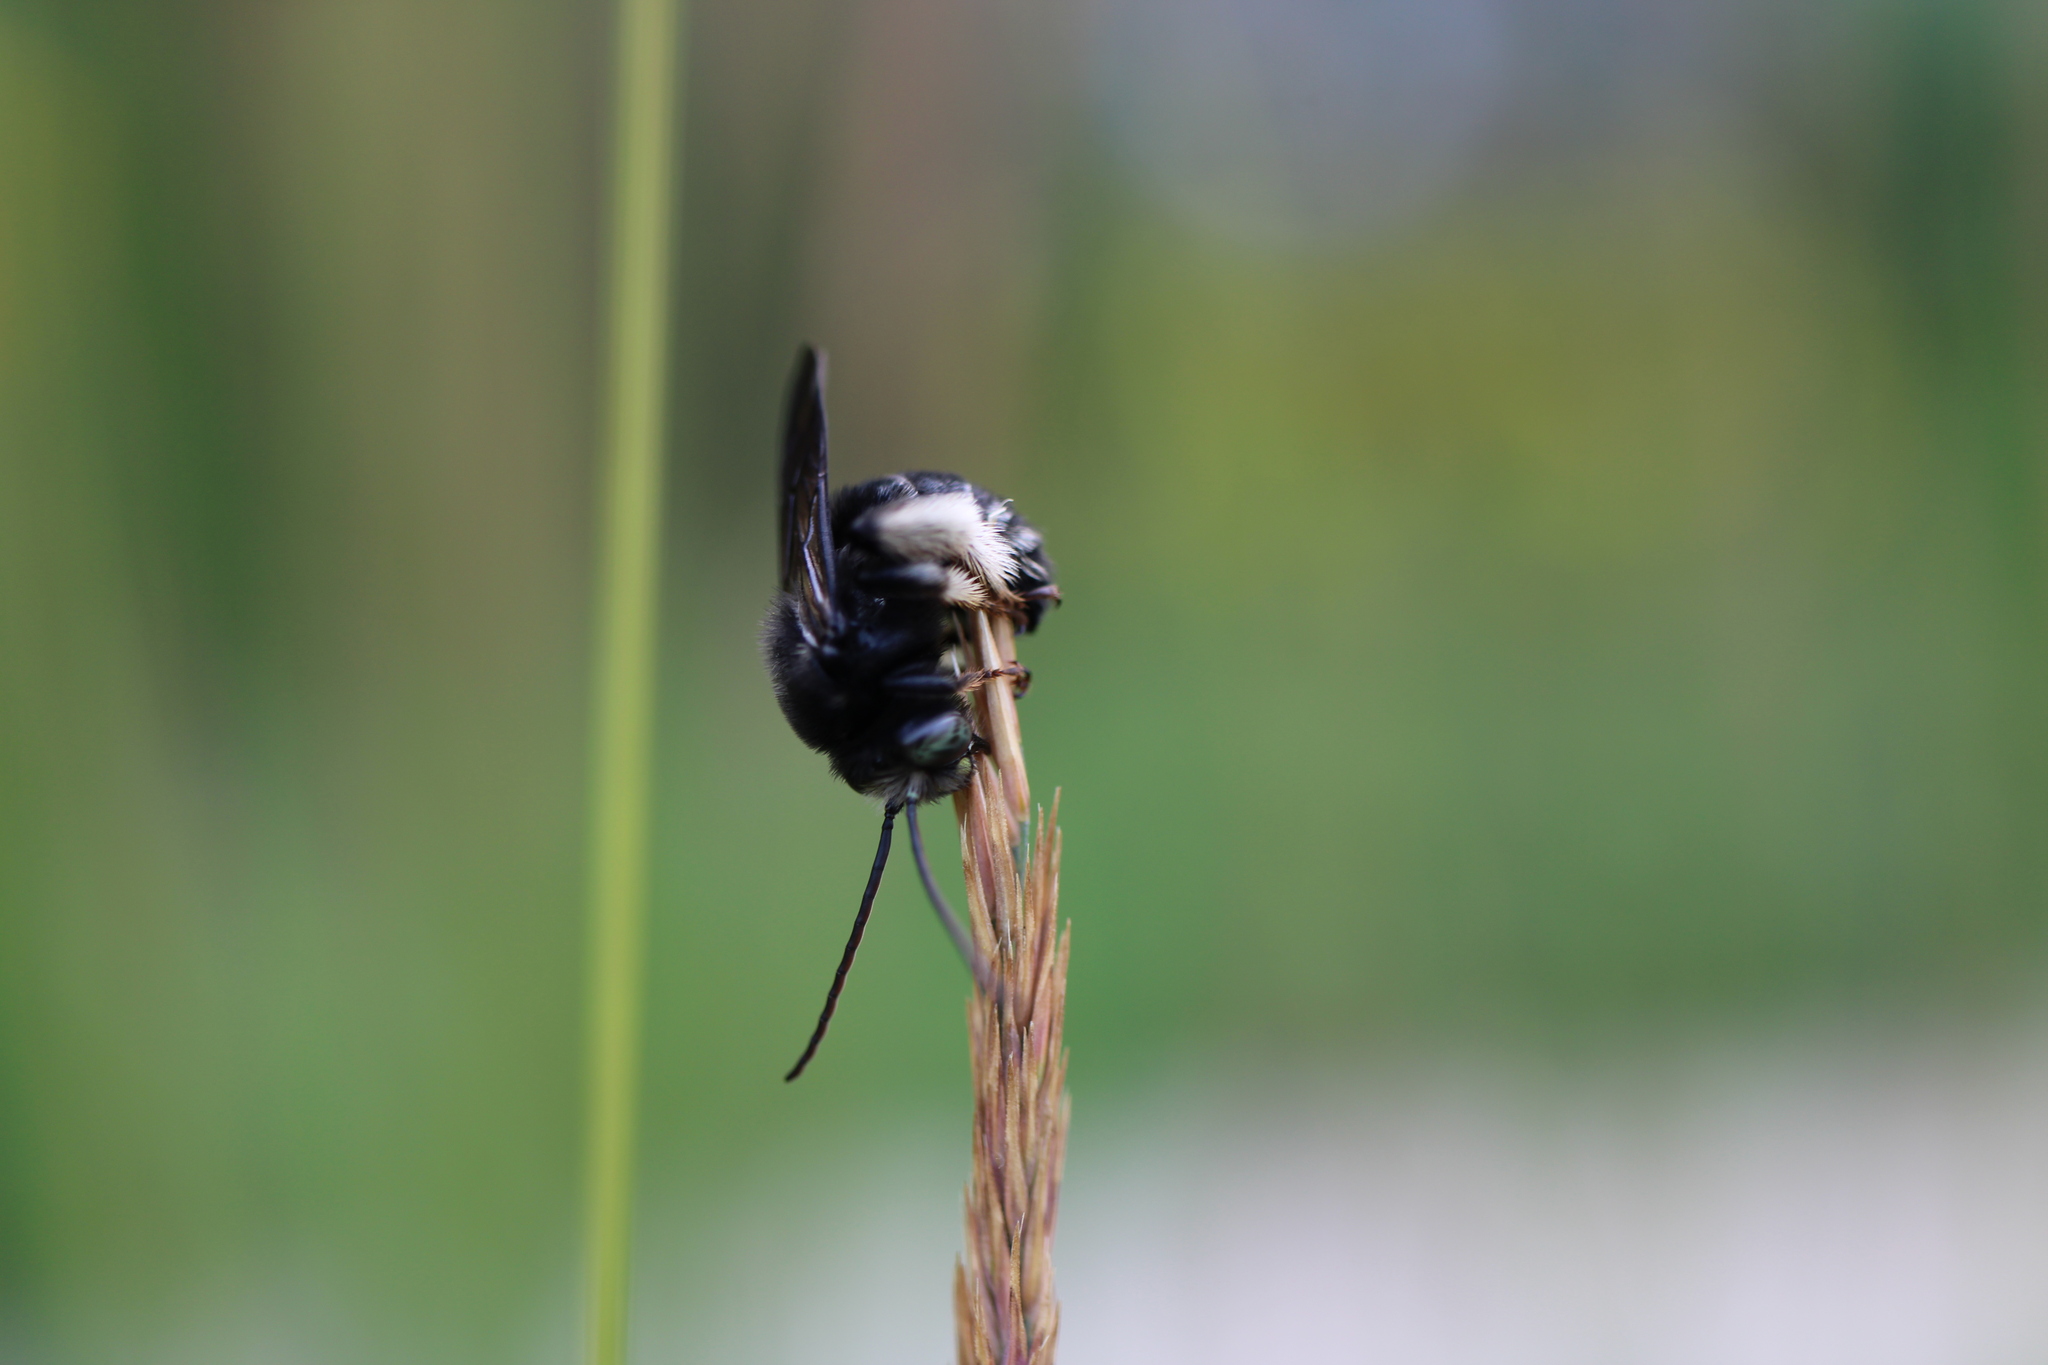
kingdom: Animalia
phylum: Arthropoda
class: Insecta
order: Hymenoptera
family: Apidae
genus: Melissodes
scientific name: Melissodes bimaculatus
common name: Two-spotted long-horned bee
